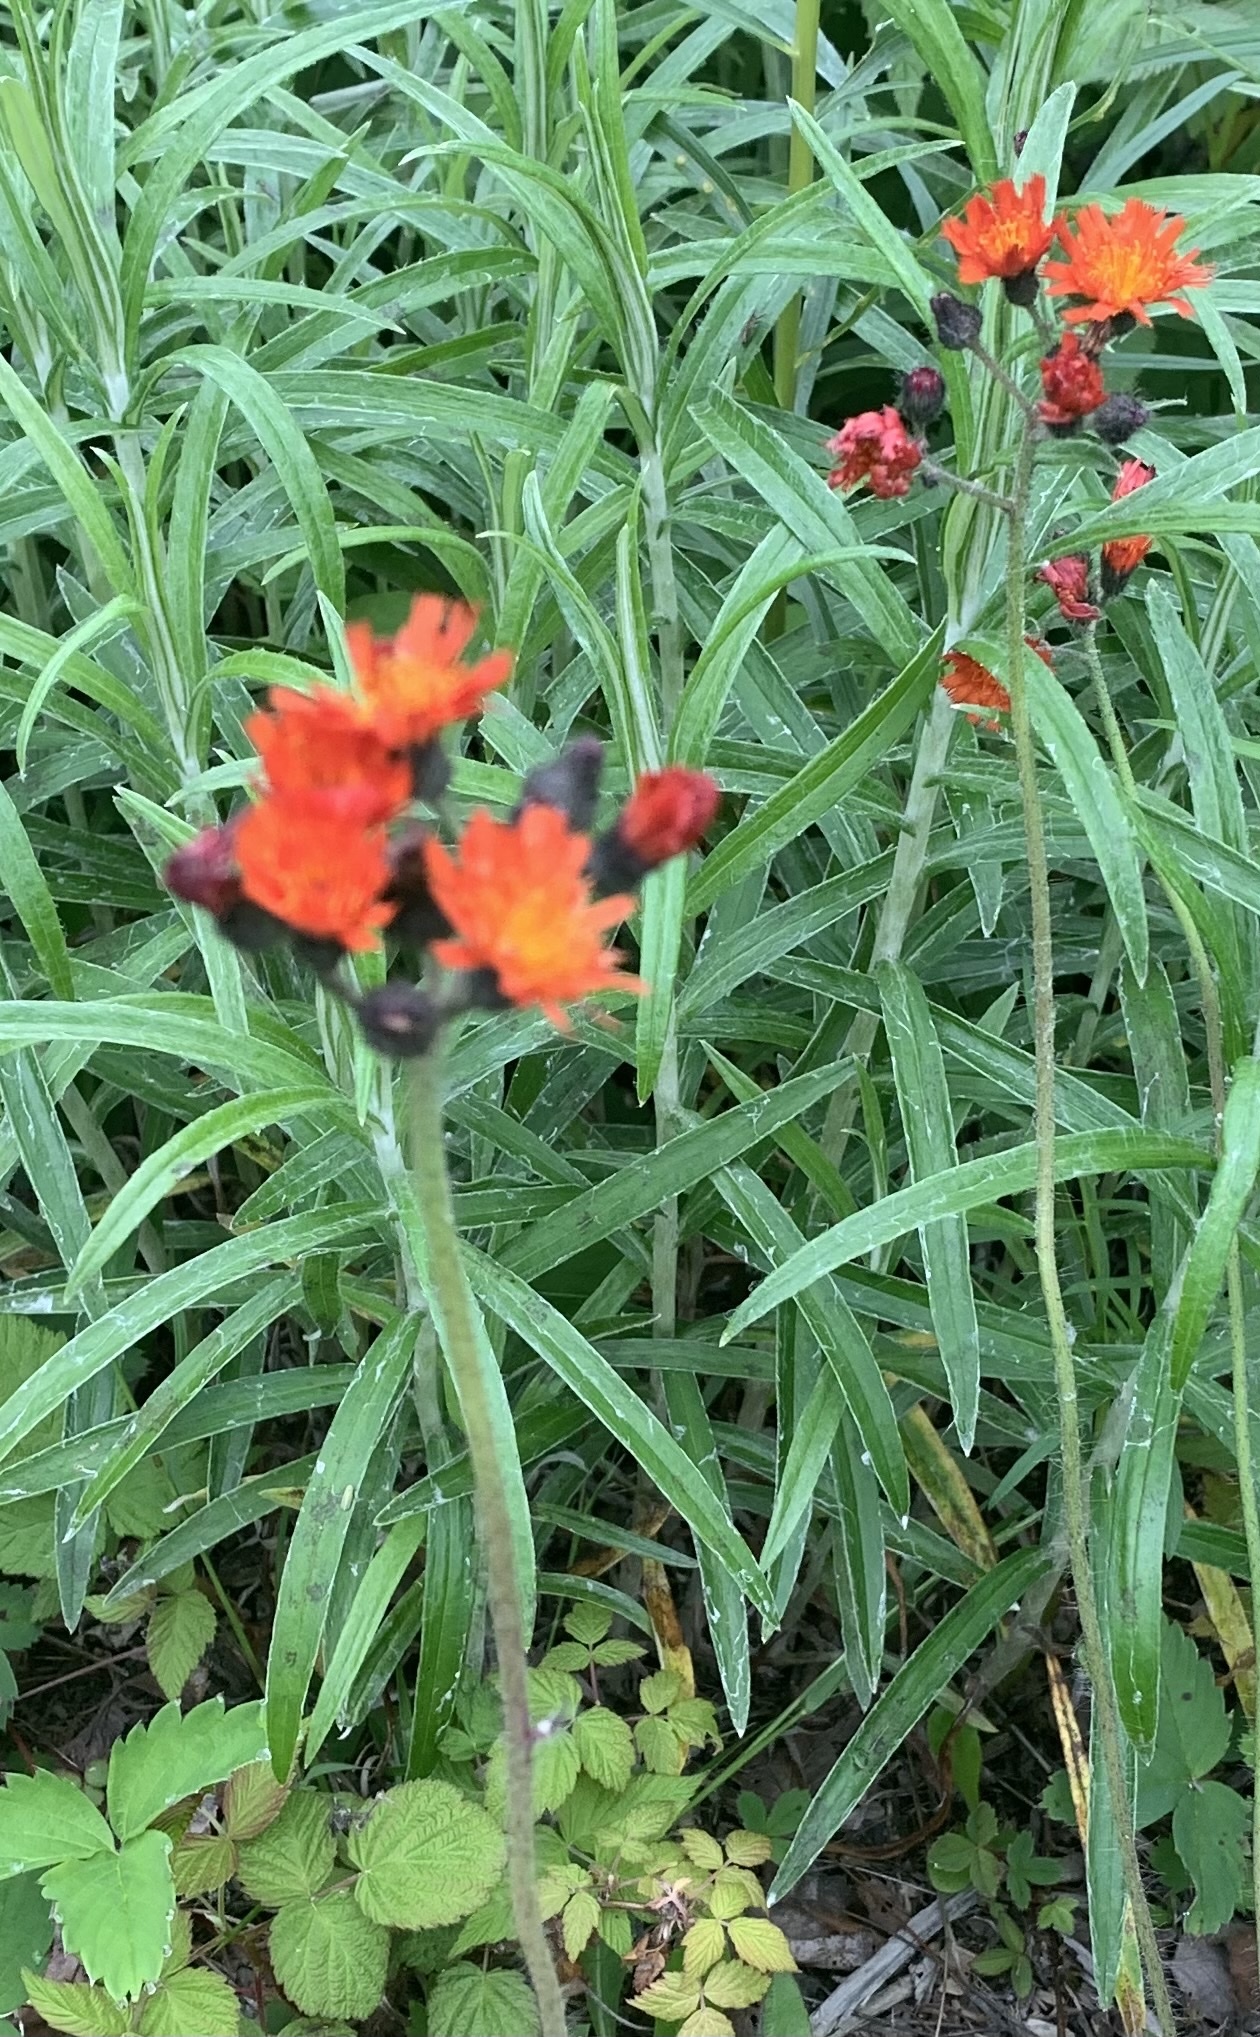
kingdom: Plantae
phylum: Tracheophyta
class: Magnoliopsida
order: Asterales
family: Asteraceae
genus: Pilosella
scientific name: Pilosella aurantiaca
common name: Fox-and-cubs
